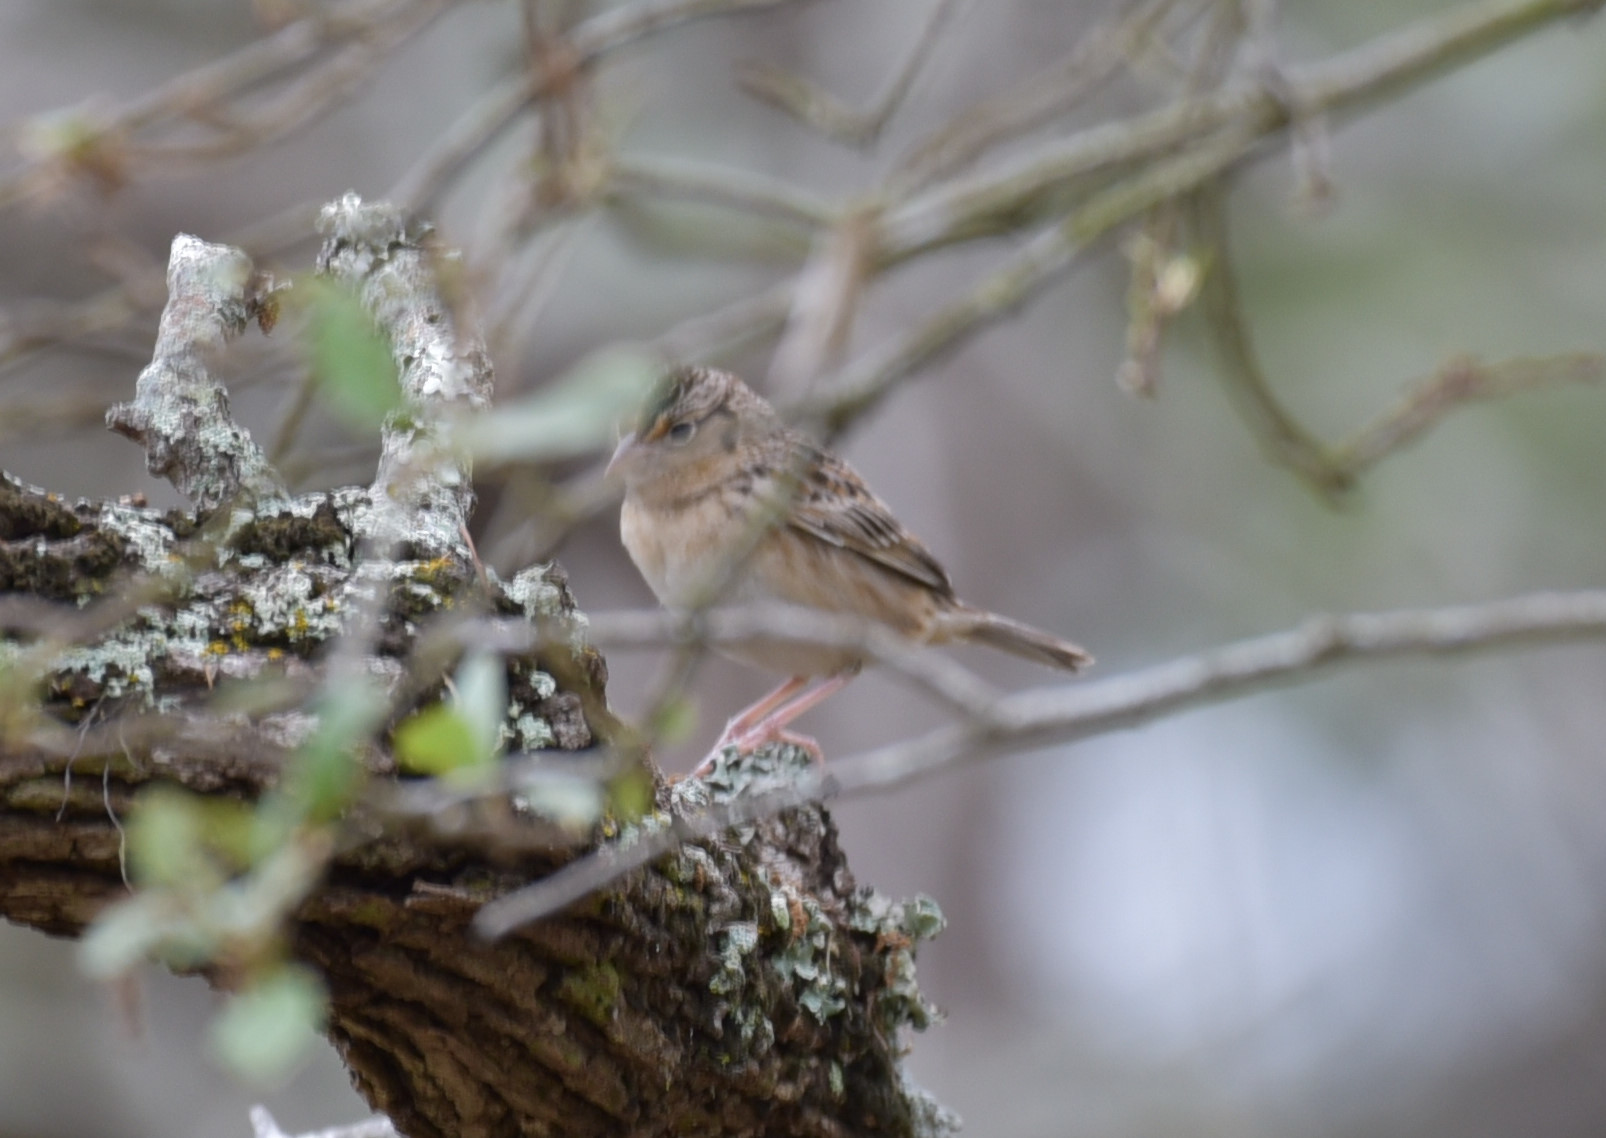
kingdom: Animalia
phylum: Chordata
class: Aves
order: Passeriformes
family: Passerellidae
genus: Ammodramus
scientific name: Ammodramus savannarum
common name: Grasshopper sparrow
